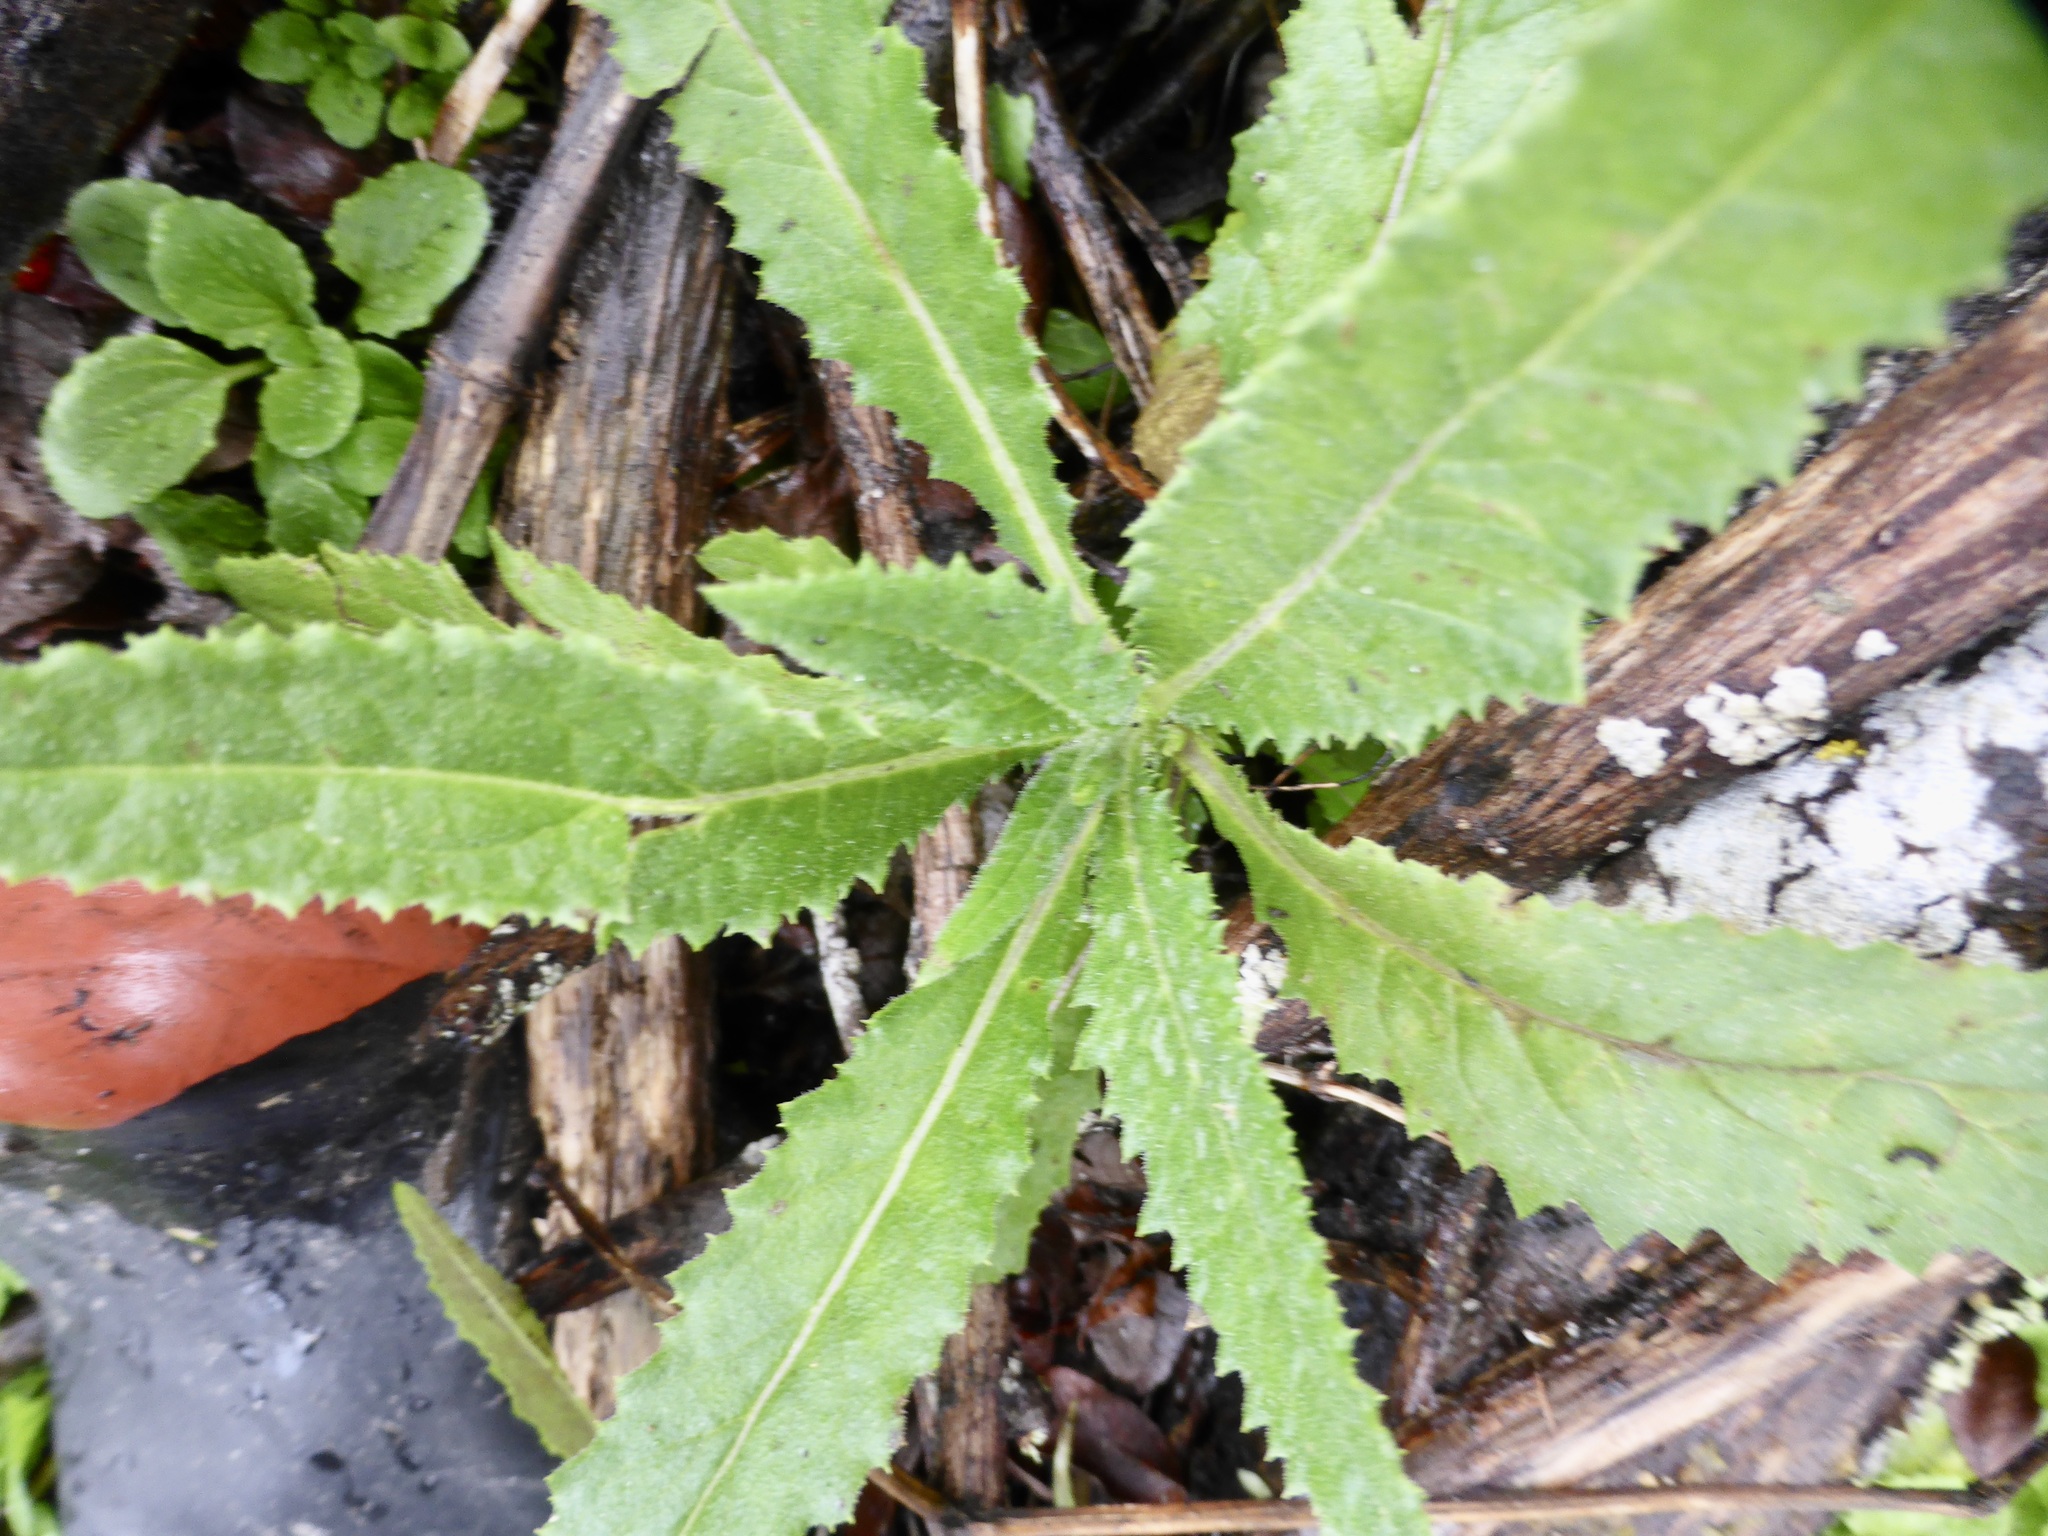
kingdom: Plantae
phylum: Tracheophyta
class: Magnoliopsida
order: Asterales
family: Asteraceae
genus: Senecio
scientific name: Senecio minimus
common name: Toothed fireweed
